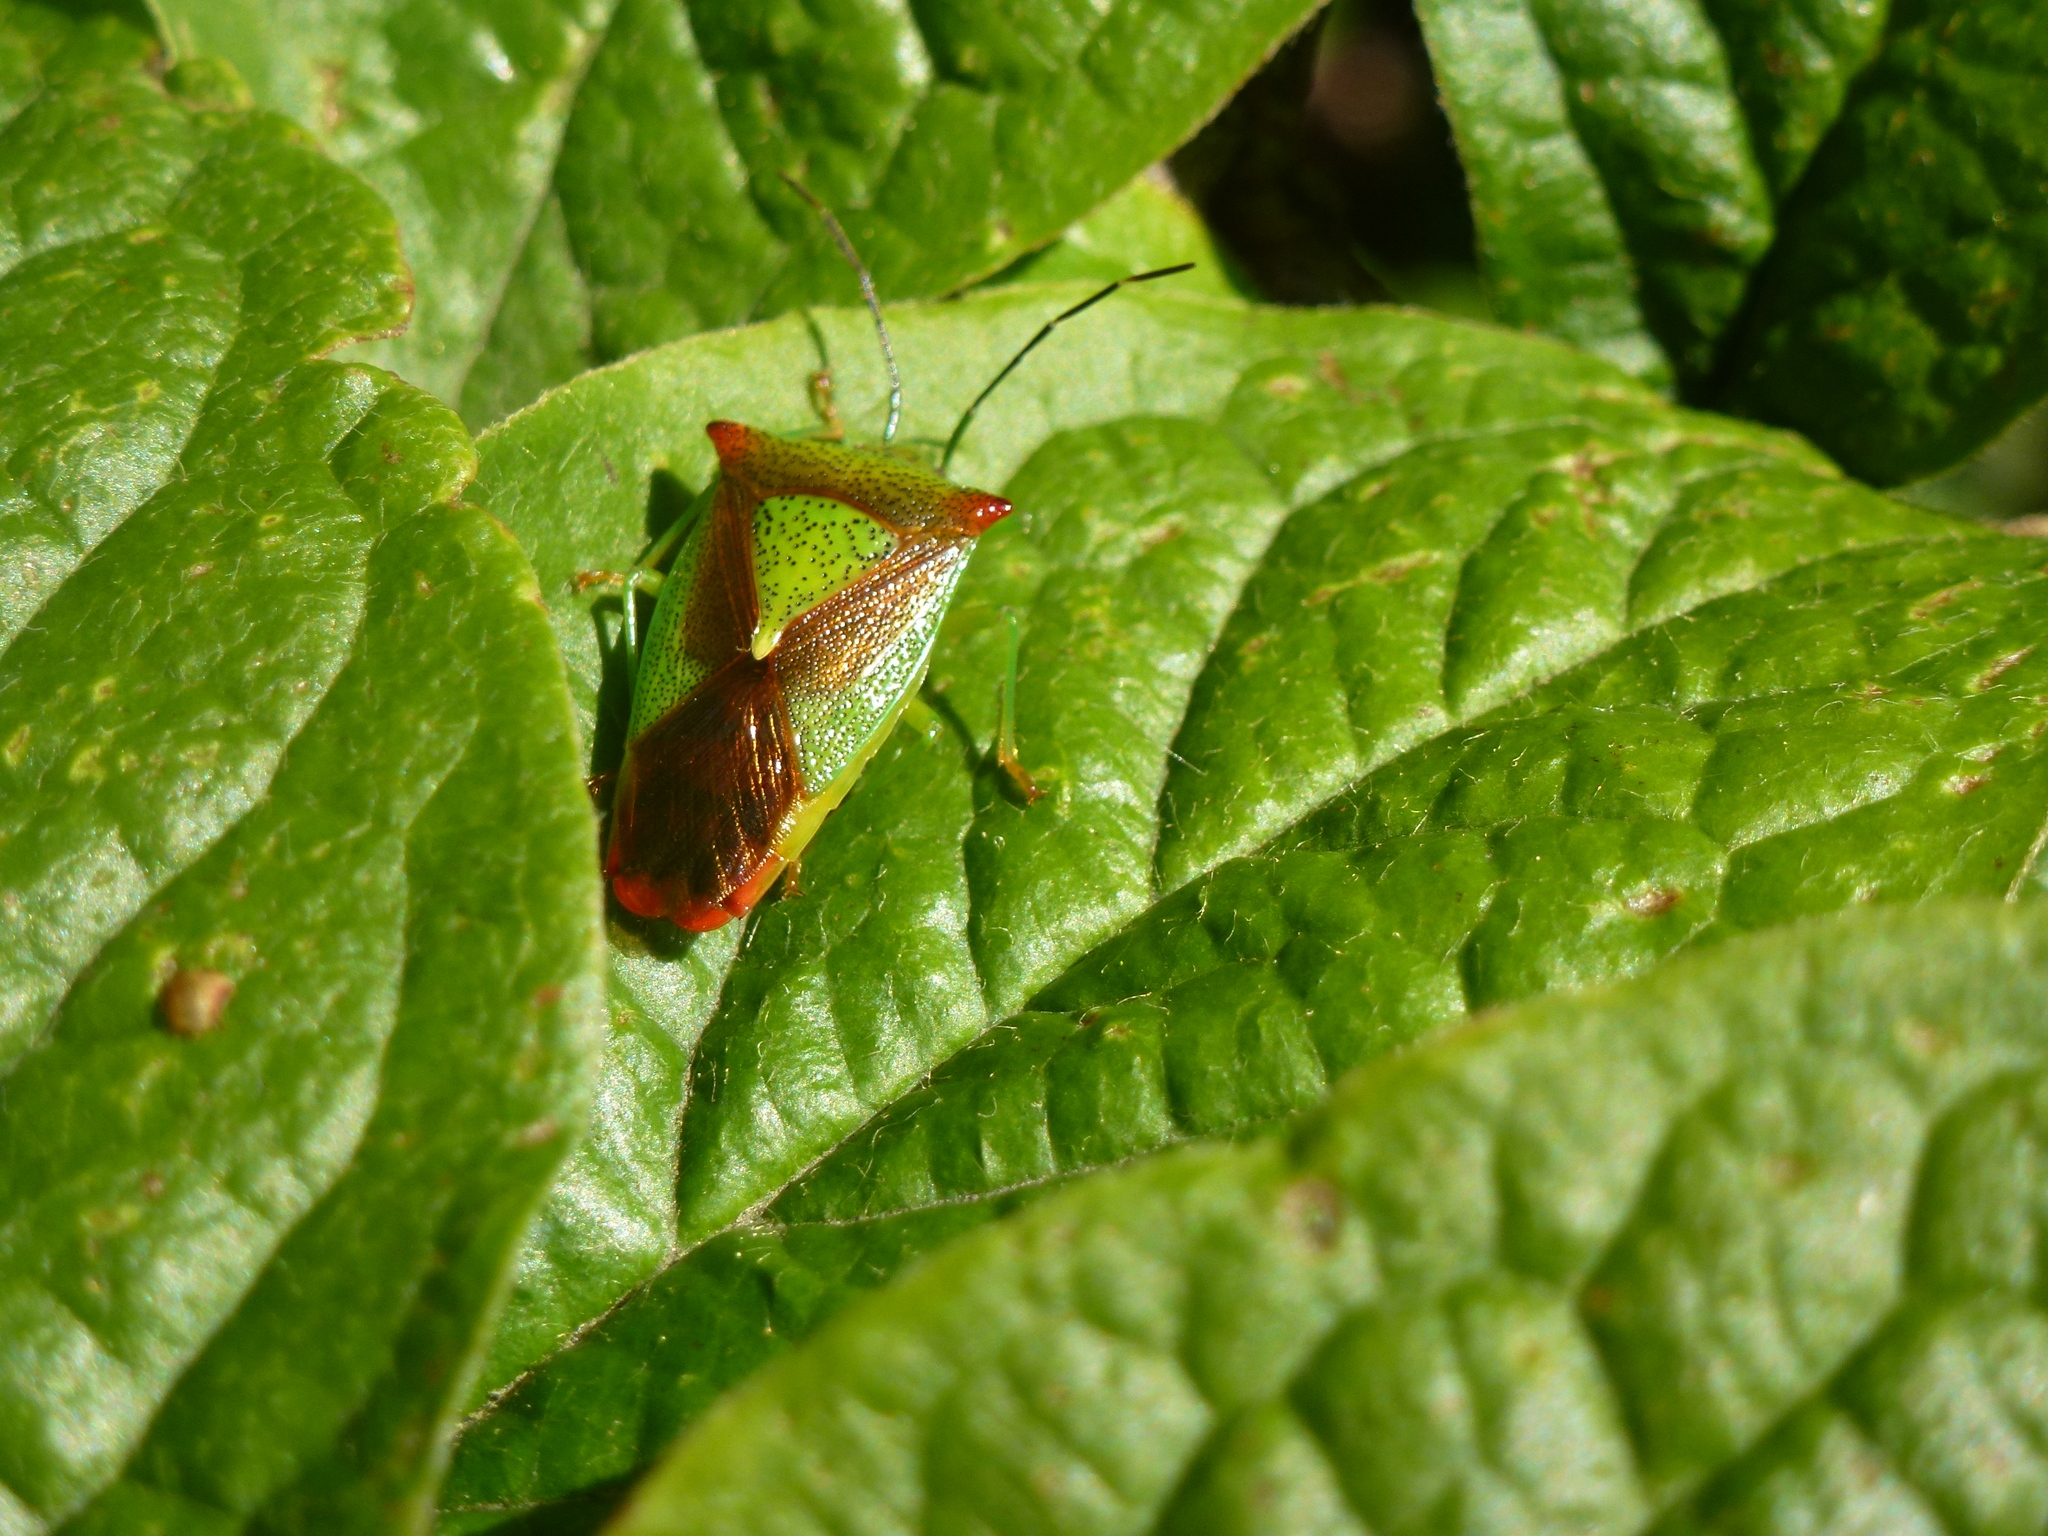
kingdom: Animalia
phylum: Arthropoda
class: Insecta
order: Hemiptera
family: Acanthosomatidae
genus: Acanthosoma
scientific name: Acanthosoma haemorrhoidale
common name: Hawthorn shieldbug
